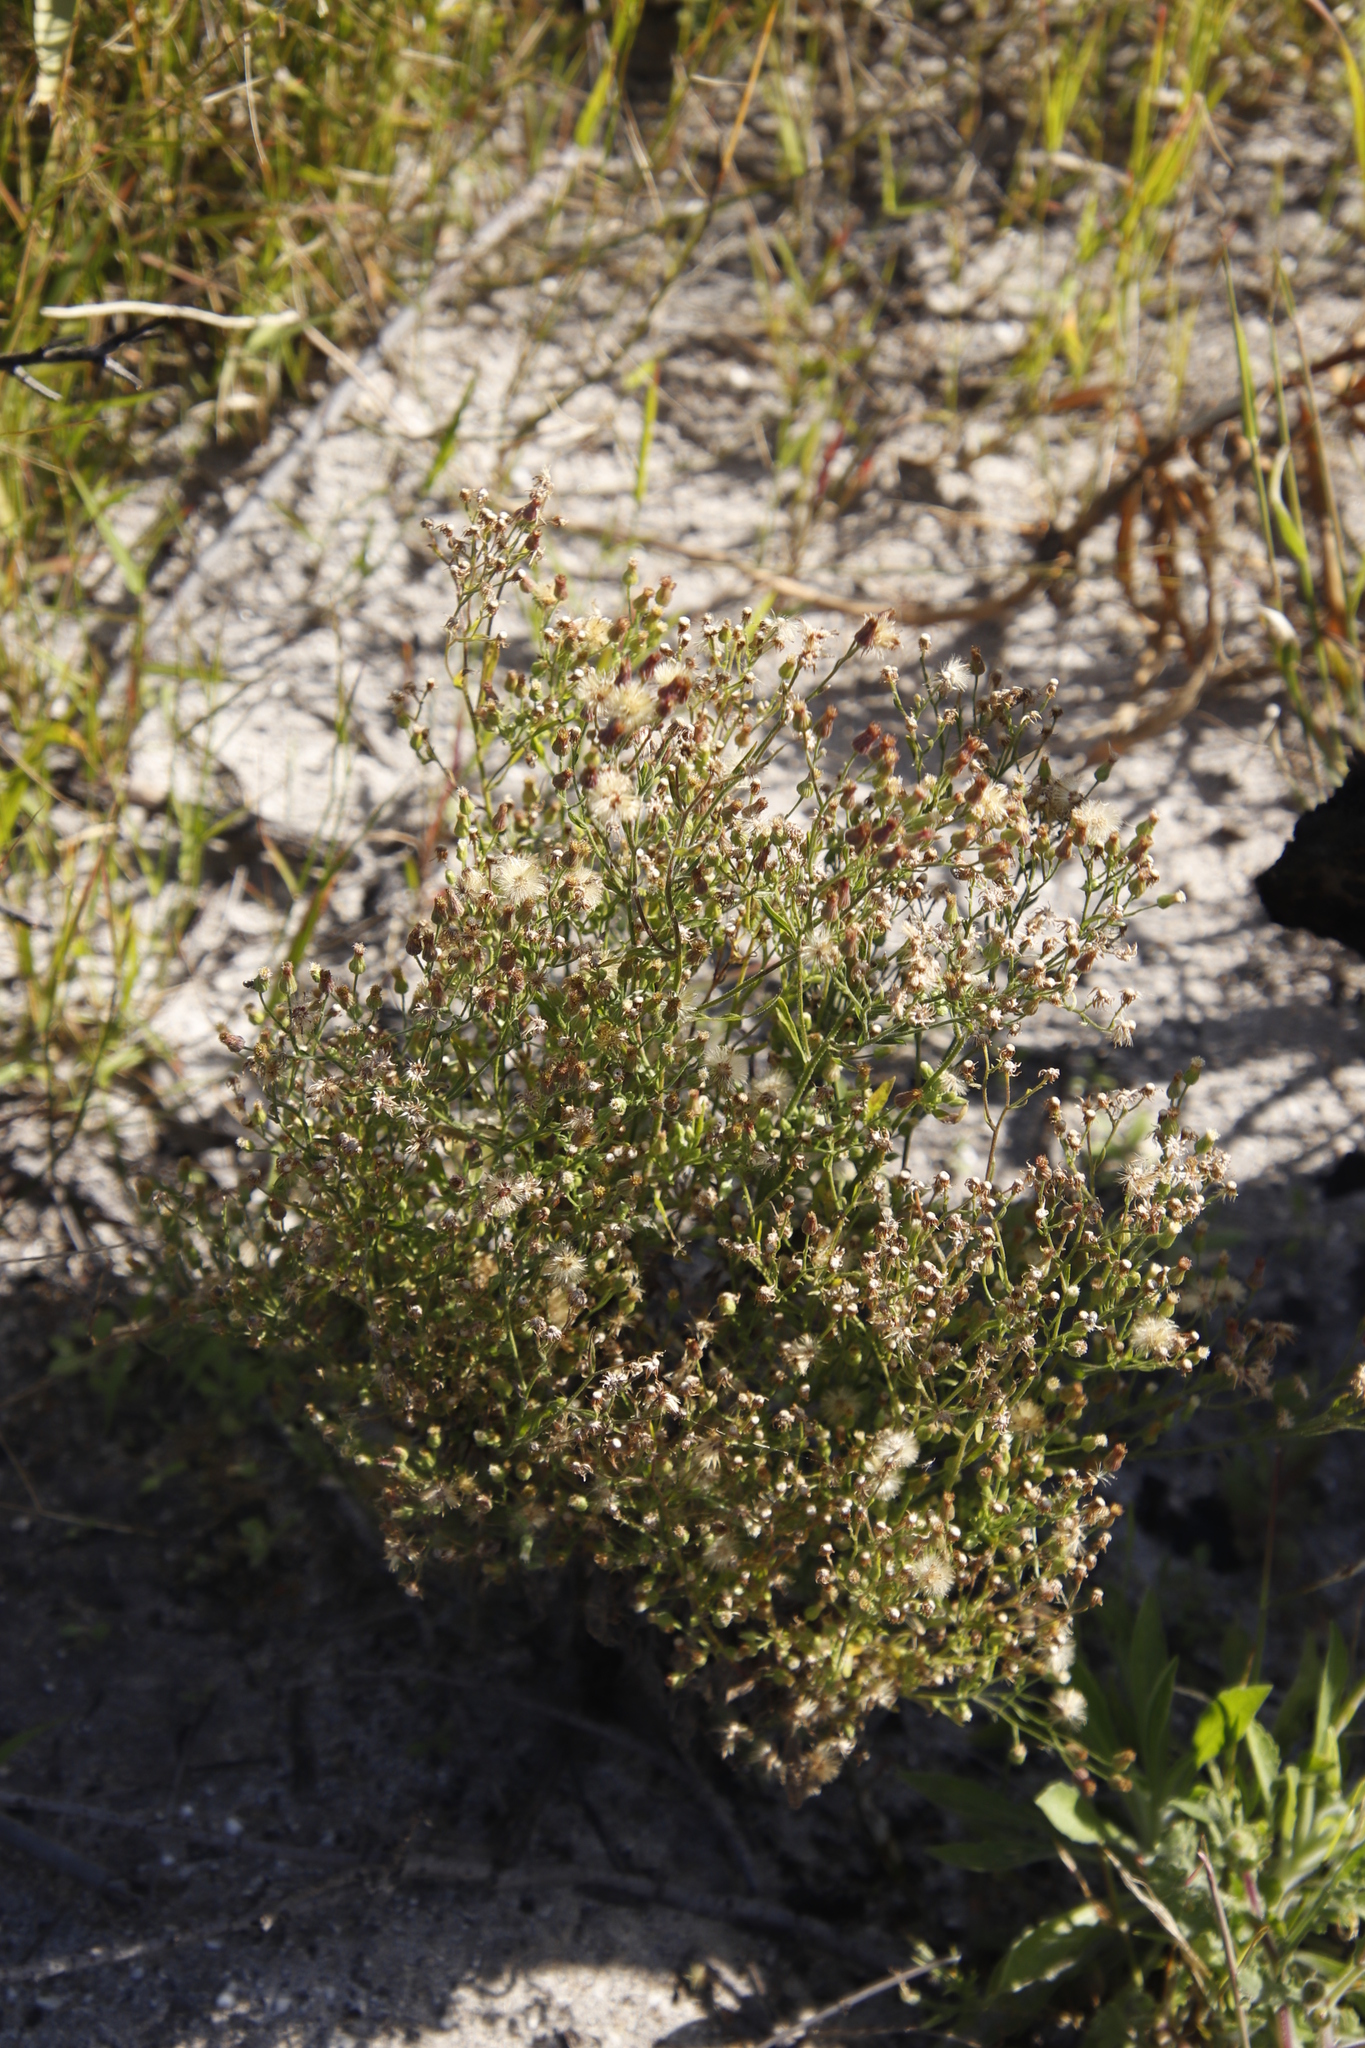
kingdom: Plantae
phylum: Tracheophyta
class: Magnoliopsida
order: Asterales
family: Asteraceae
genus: Senecio
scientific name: Senecio burchellii
